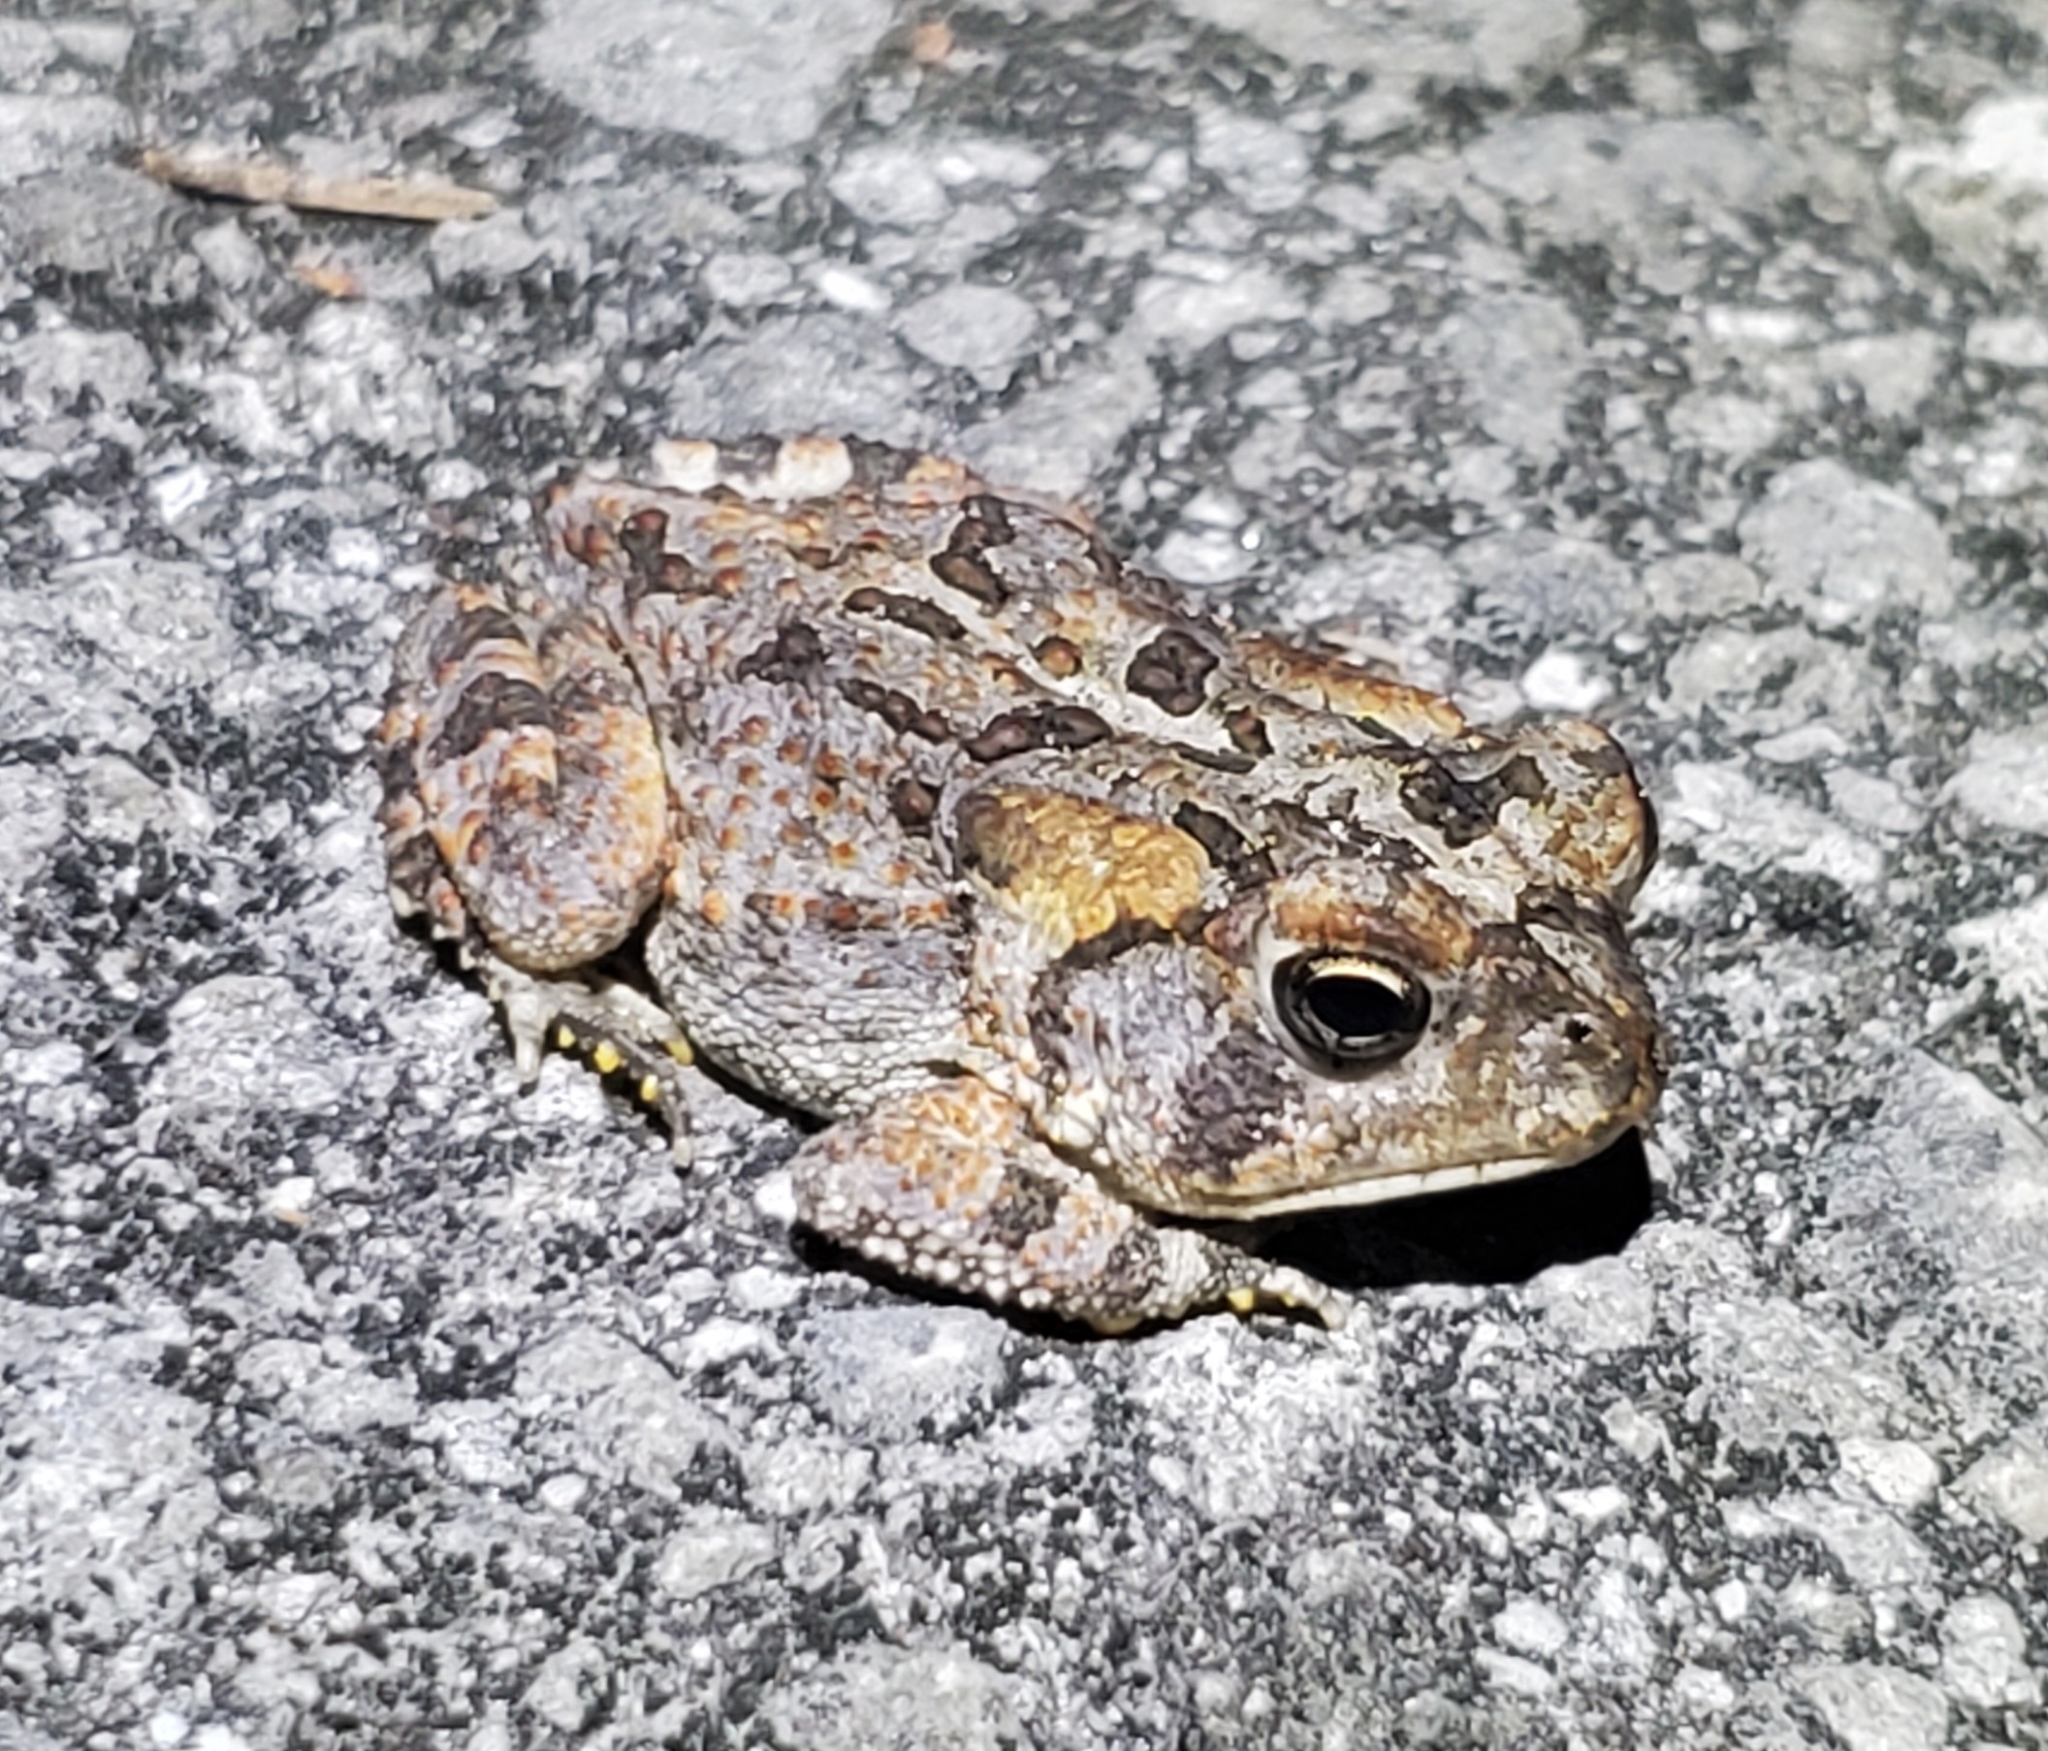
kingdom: Animalia
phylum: Chordata
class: Amphibia
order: Anura
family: Bufonidae
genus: Anaxyrus
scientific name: Anaxyrus terrestris
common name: Southern toad
